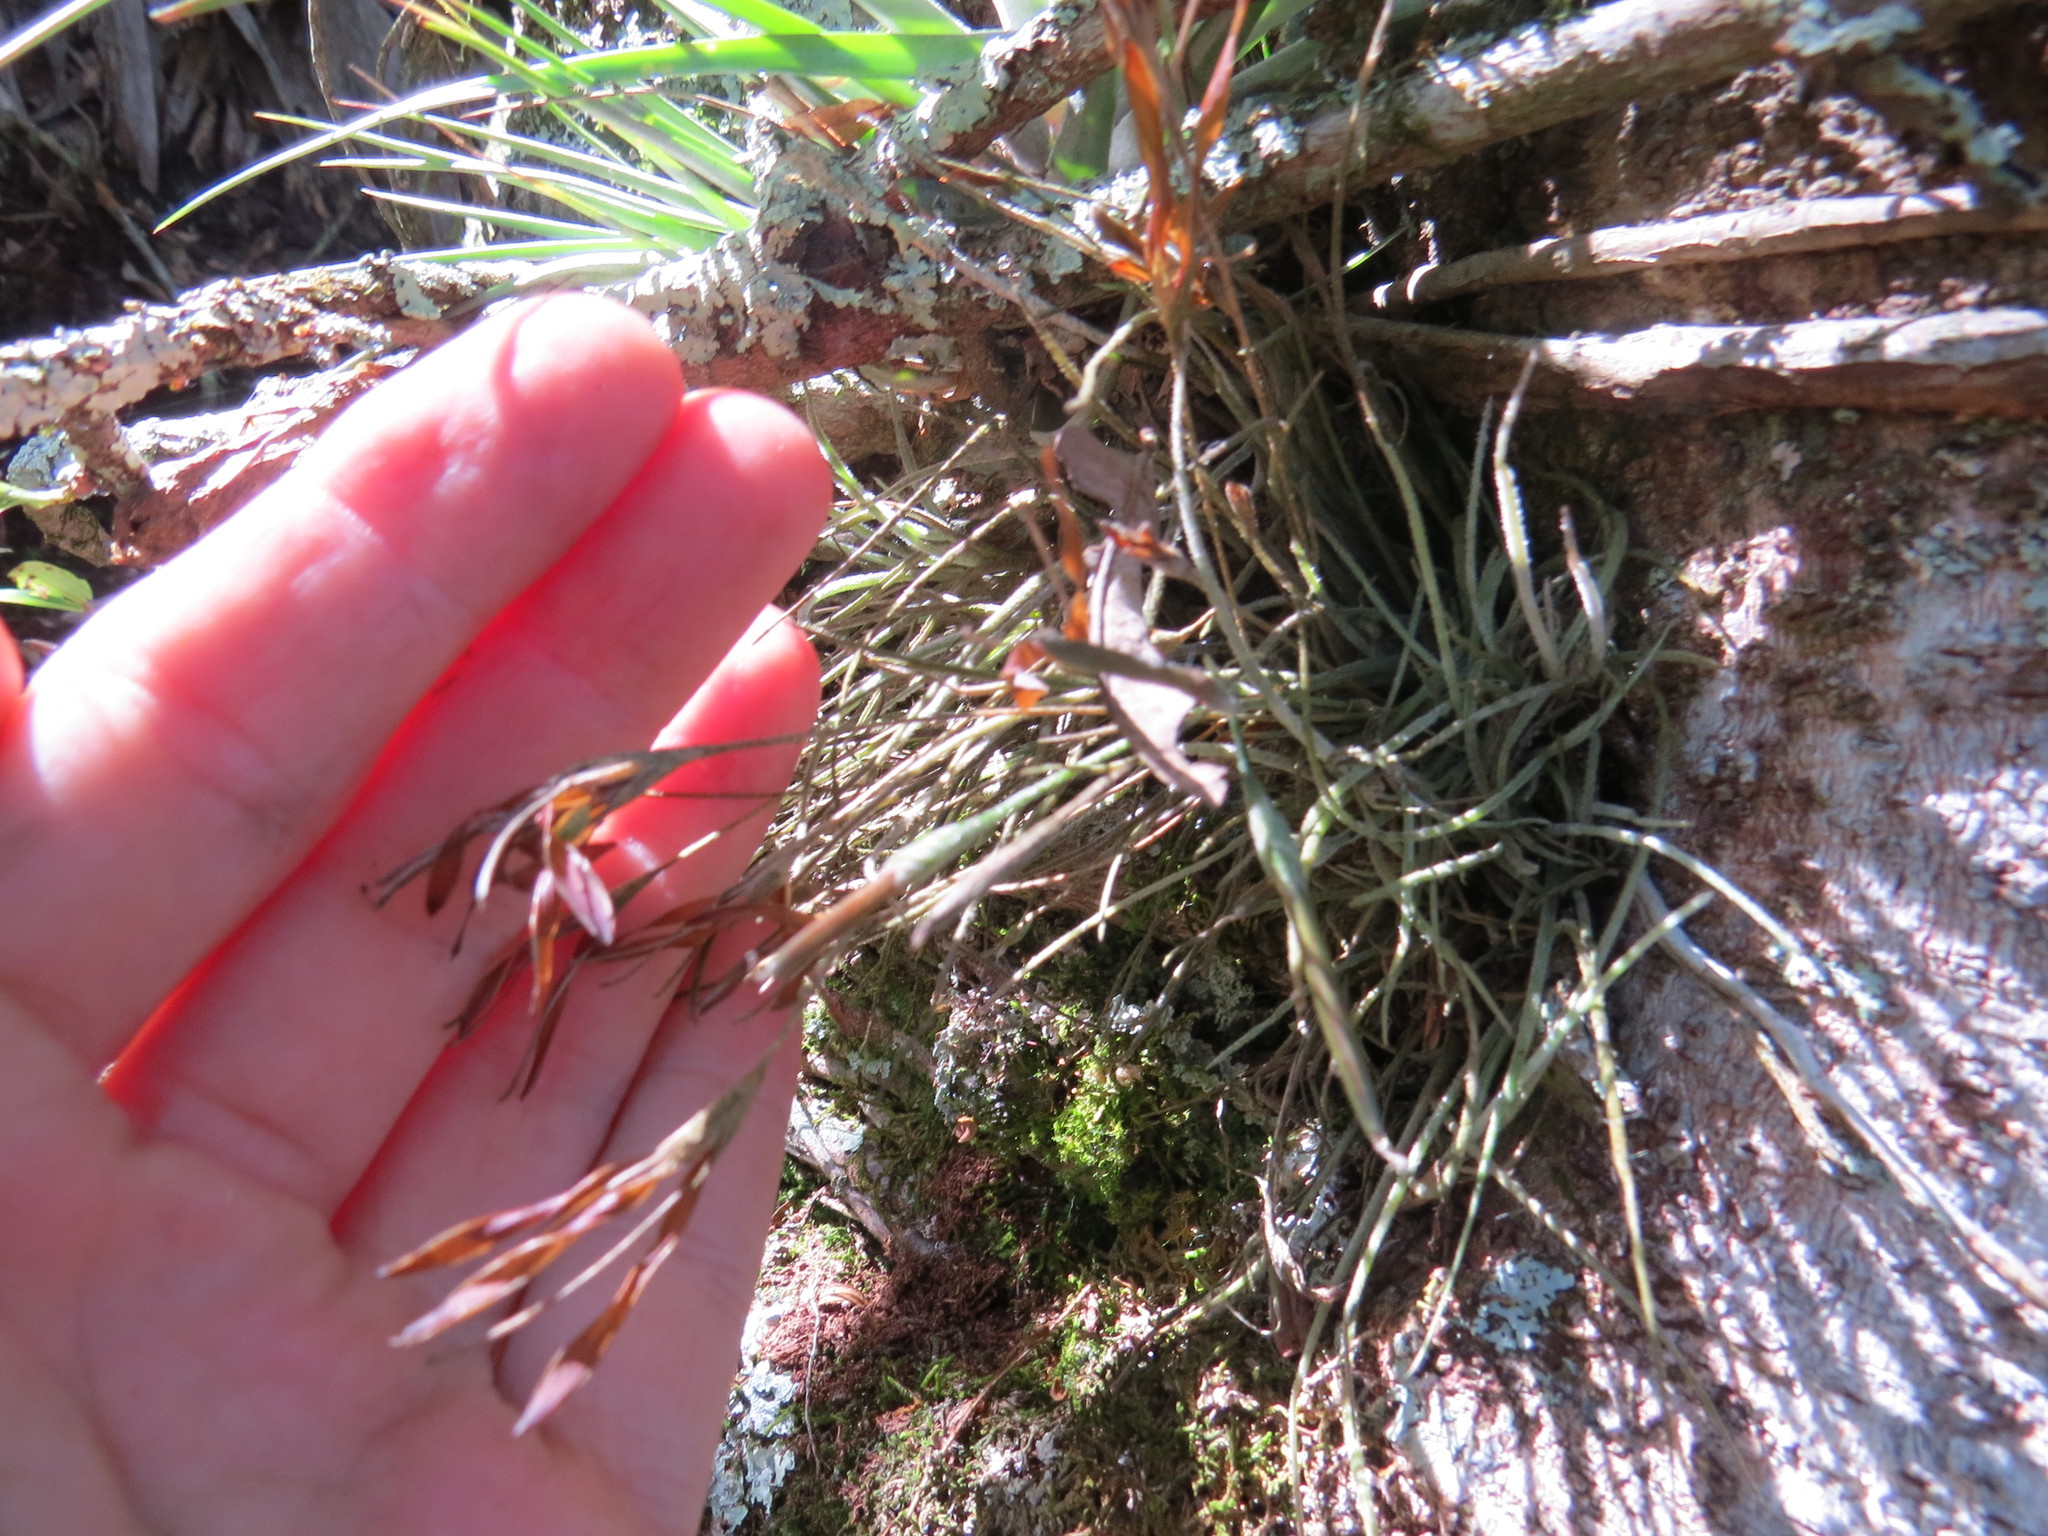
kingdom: Plantae
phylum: Tracheophyta
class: Liliopsida
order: Poales
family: Bromeliaceae
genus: Tillandsia
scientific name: Tillandsia recurvata
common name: Small ballmoss
